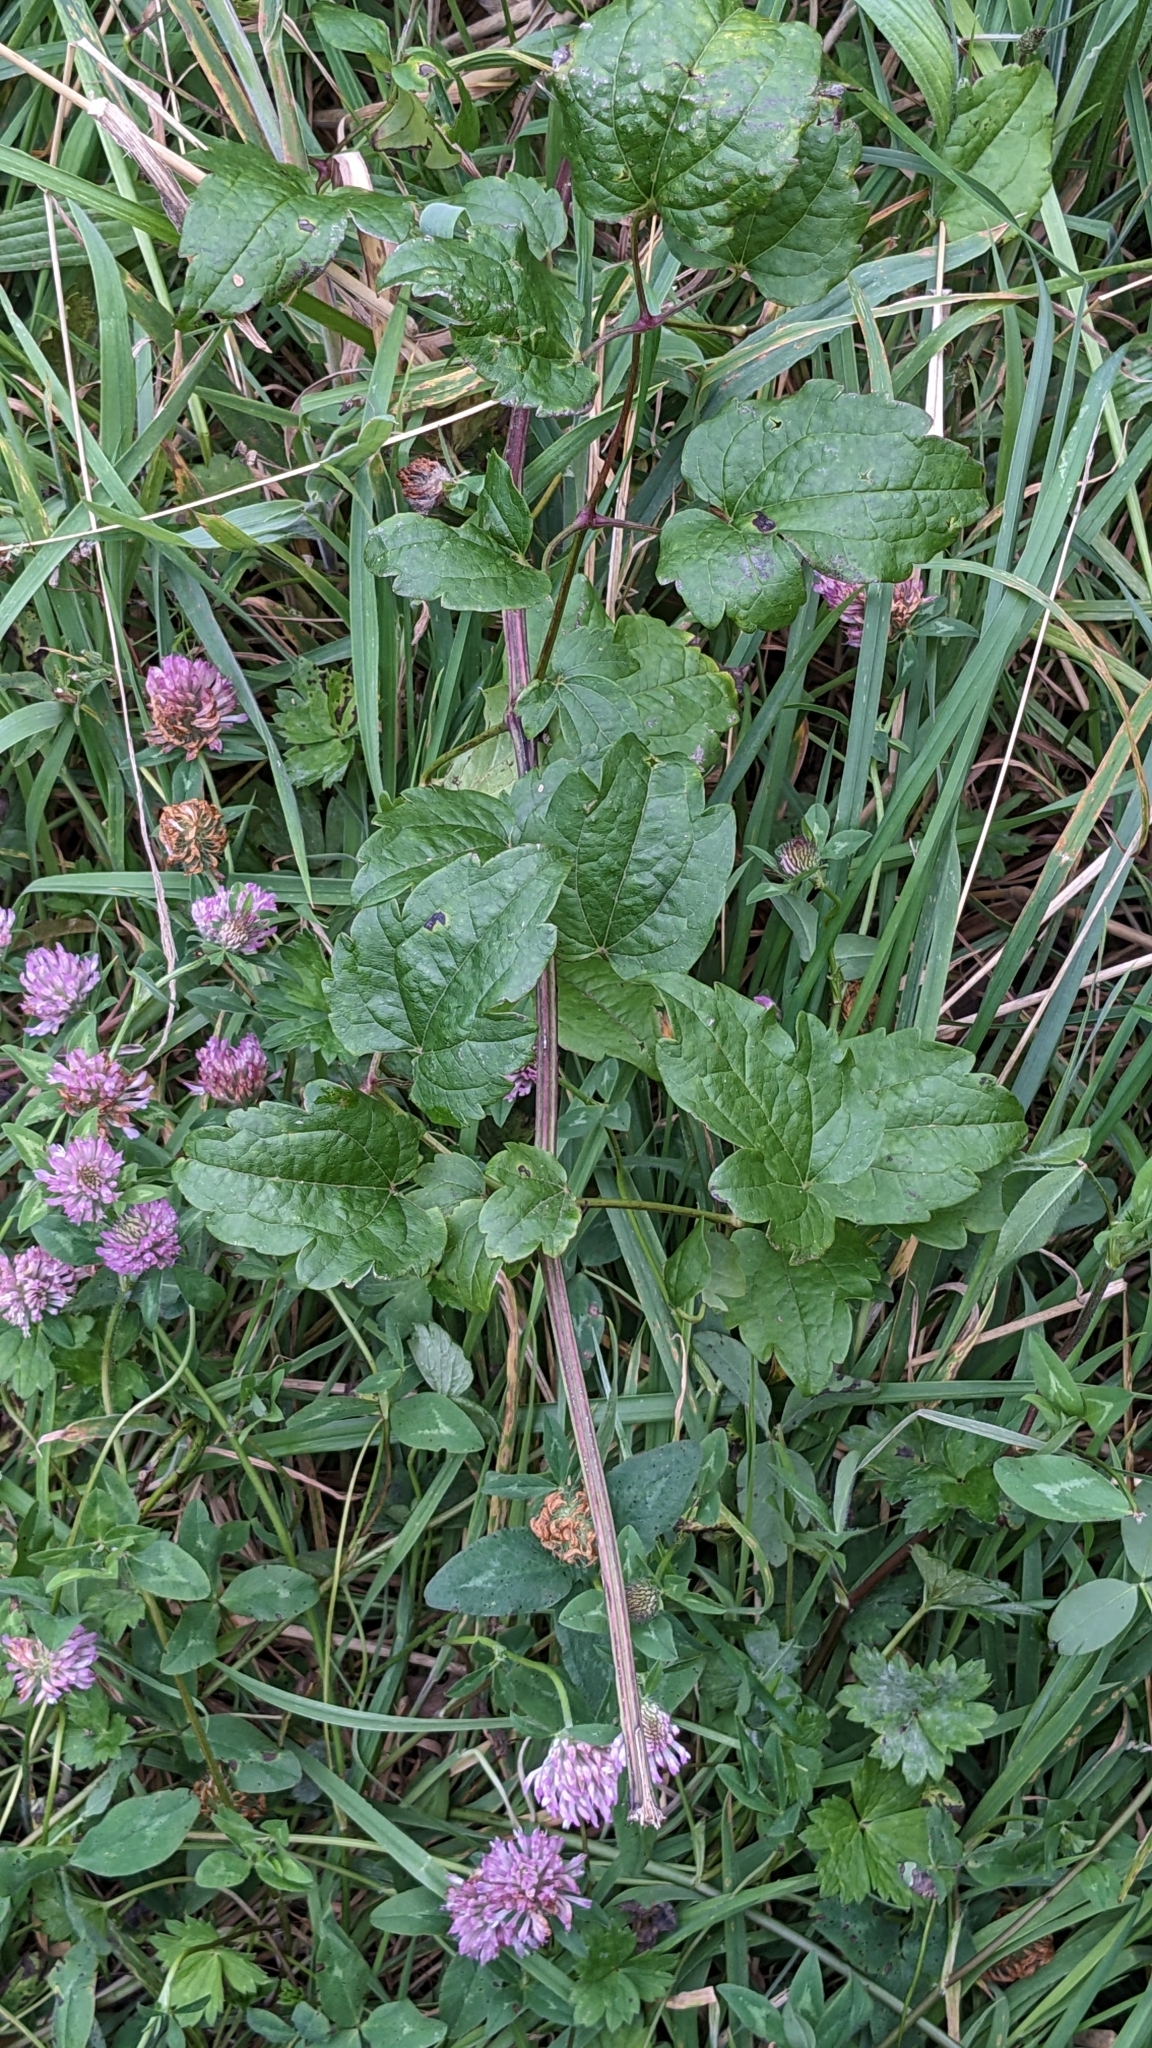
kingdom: Plantae
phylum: Tracheophyta
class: Magnoliopsida
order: Ranunculales
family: Ranunculaceae
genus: Clematis
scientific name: Clematis vitalba
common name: Evergreen clematis
